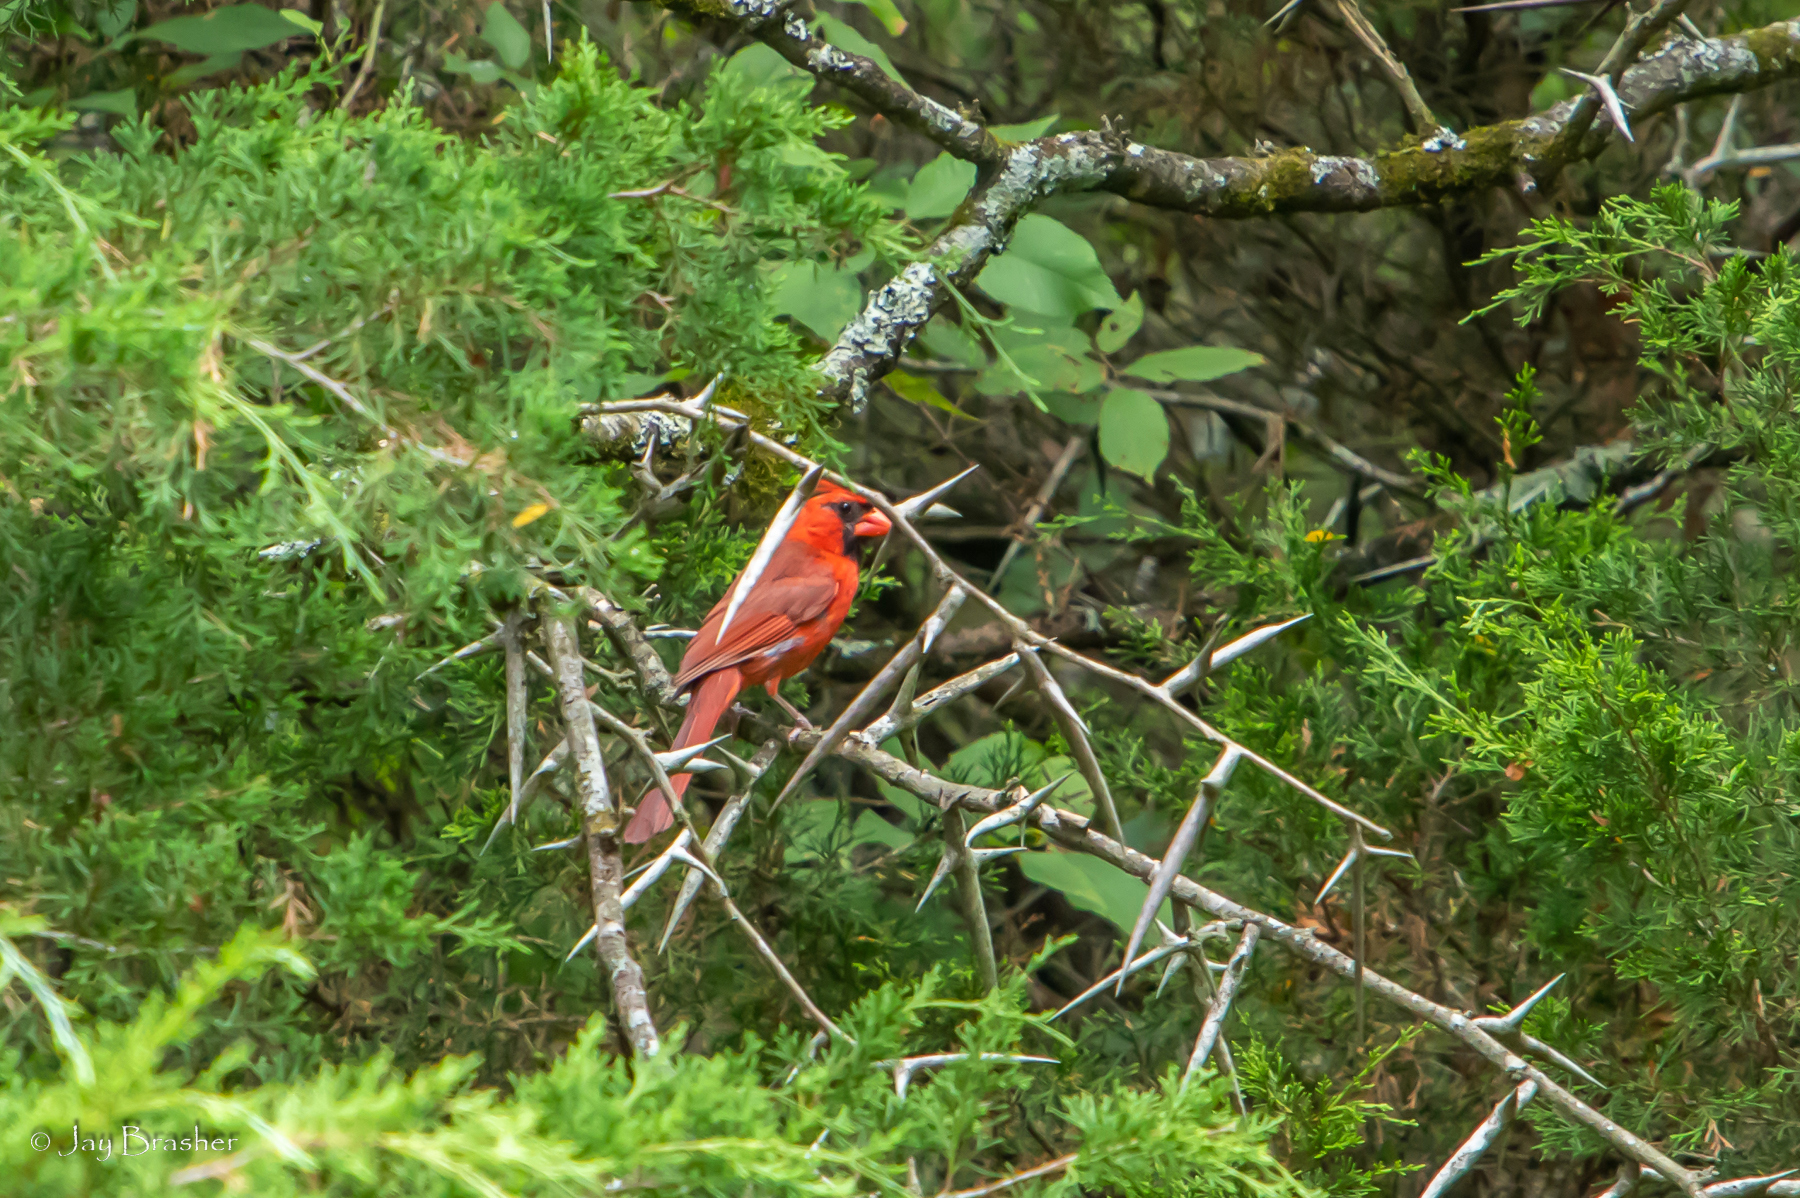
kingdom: Animalia
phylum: Chordata
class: Aves
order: Passeriformes
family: Cardinalidae
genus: Cardinalis
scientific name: Cardinalis cardinalis
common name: Northern cardinal
